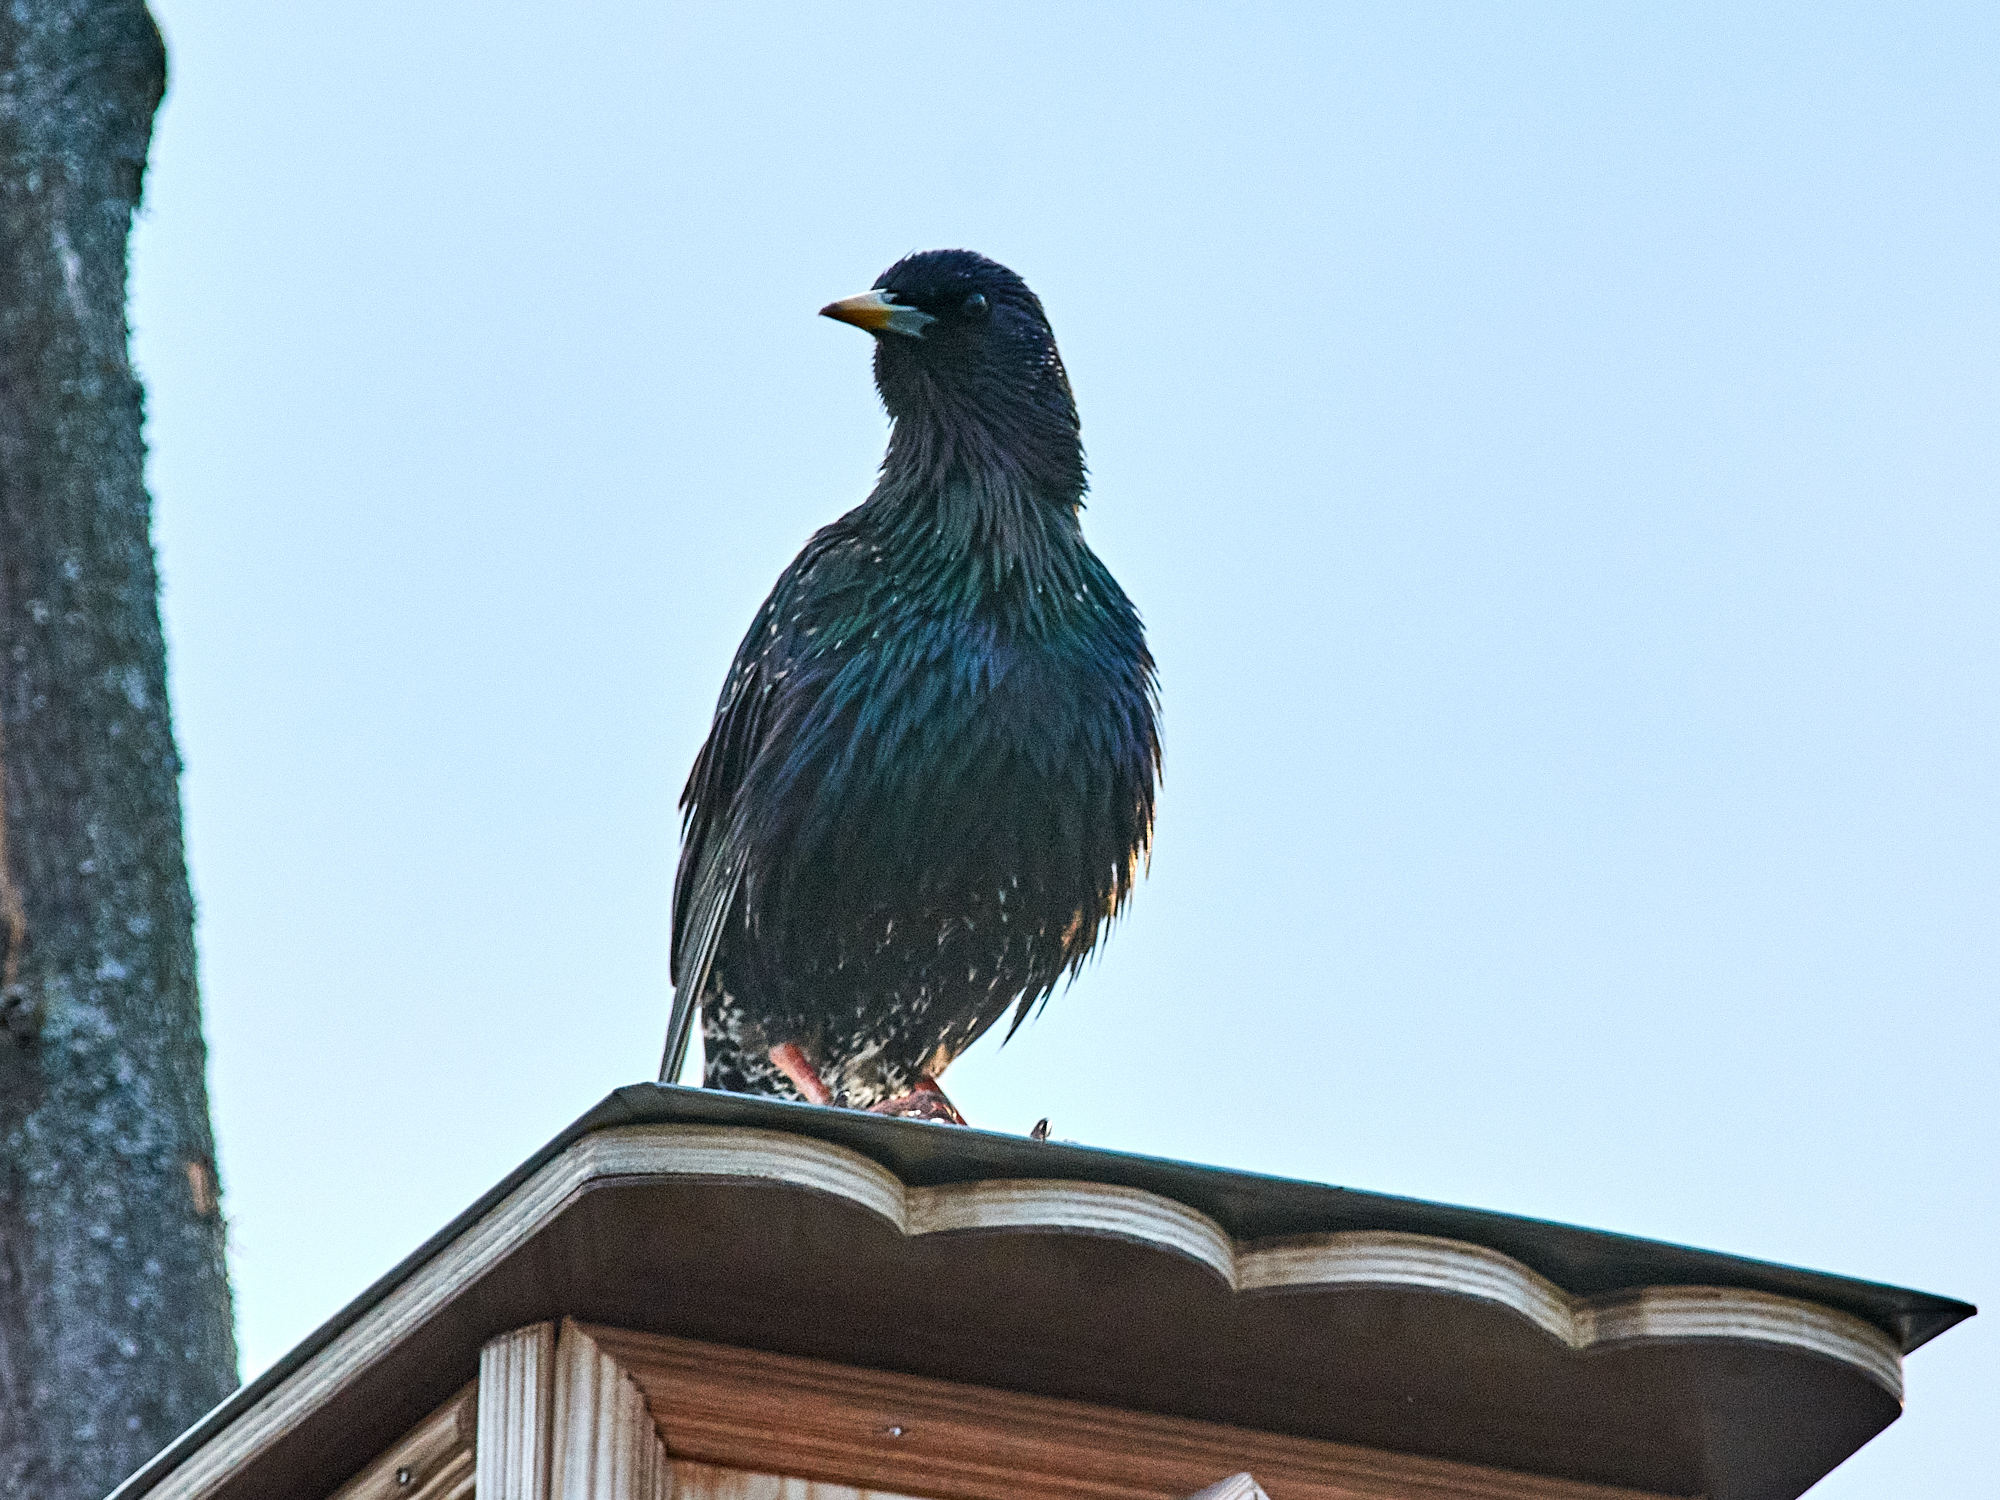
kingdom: Animalia
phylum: Chordata
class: Aves
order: Passeriformes
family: Sturnidae
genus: Sturnus
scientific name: Sturnus vulgaris
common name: Common starling
